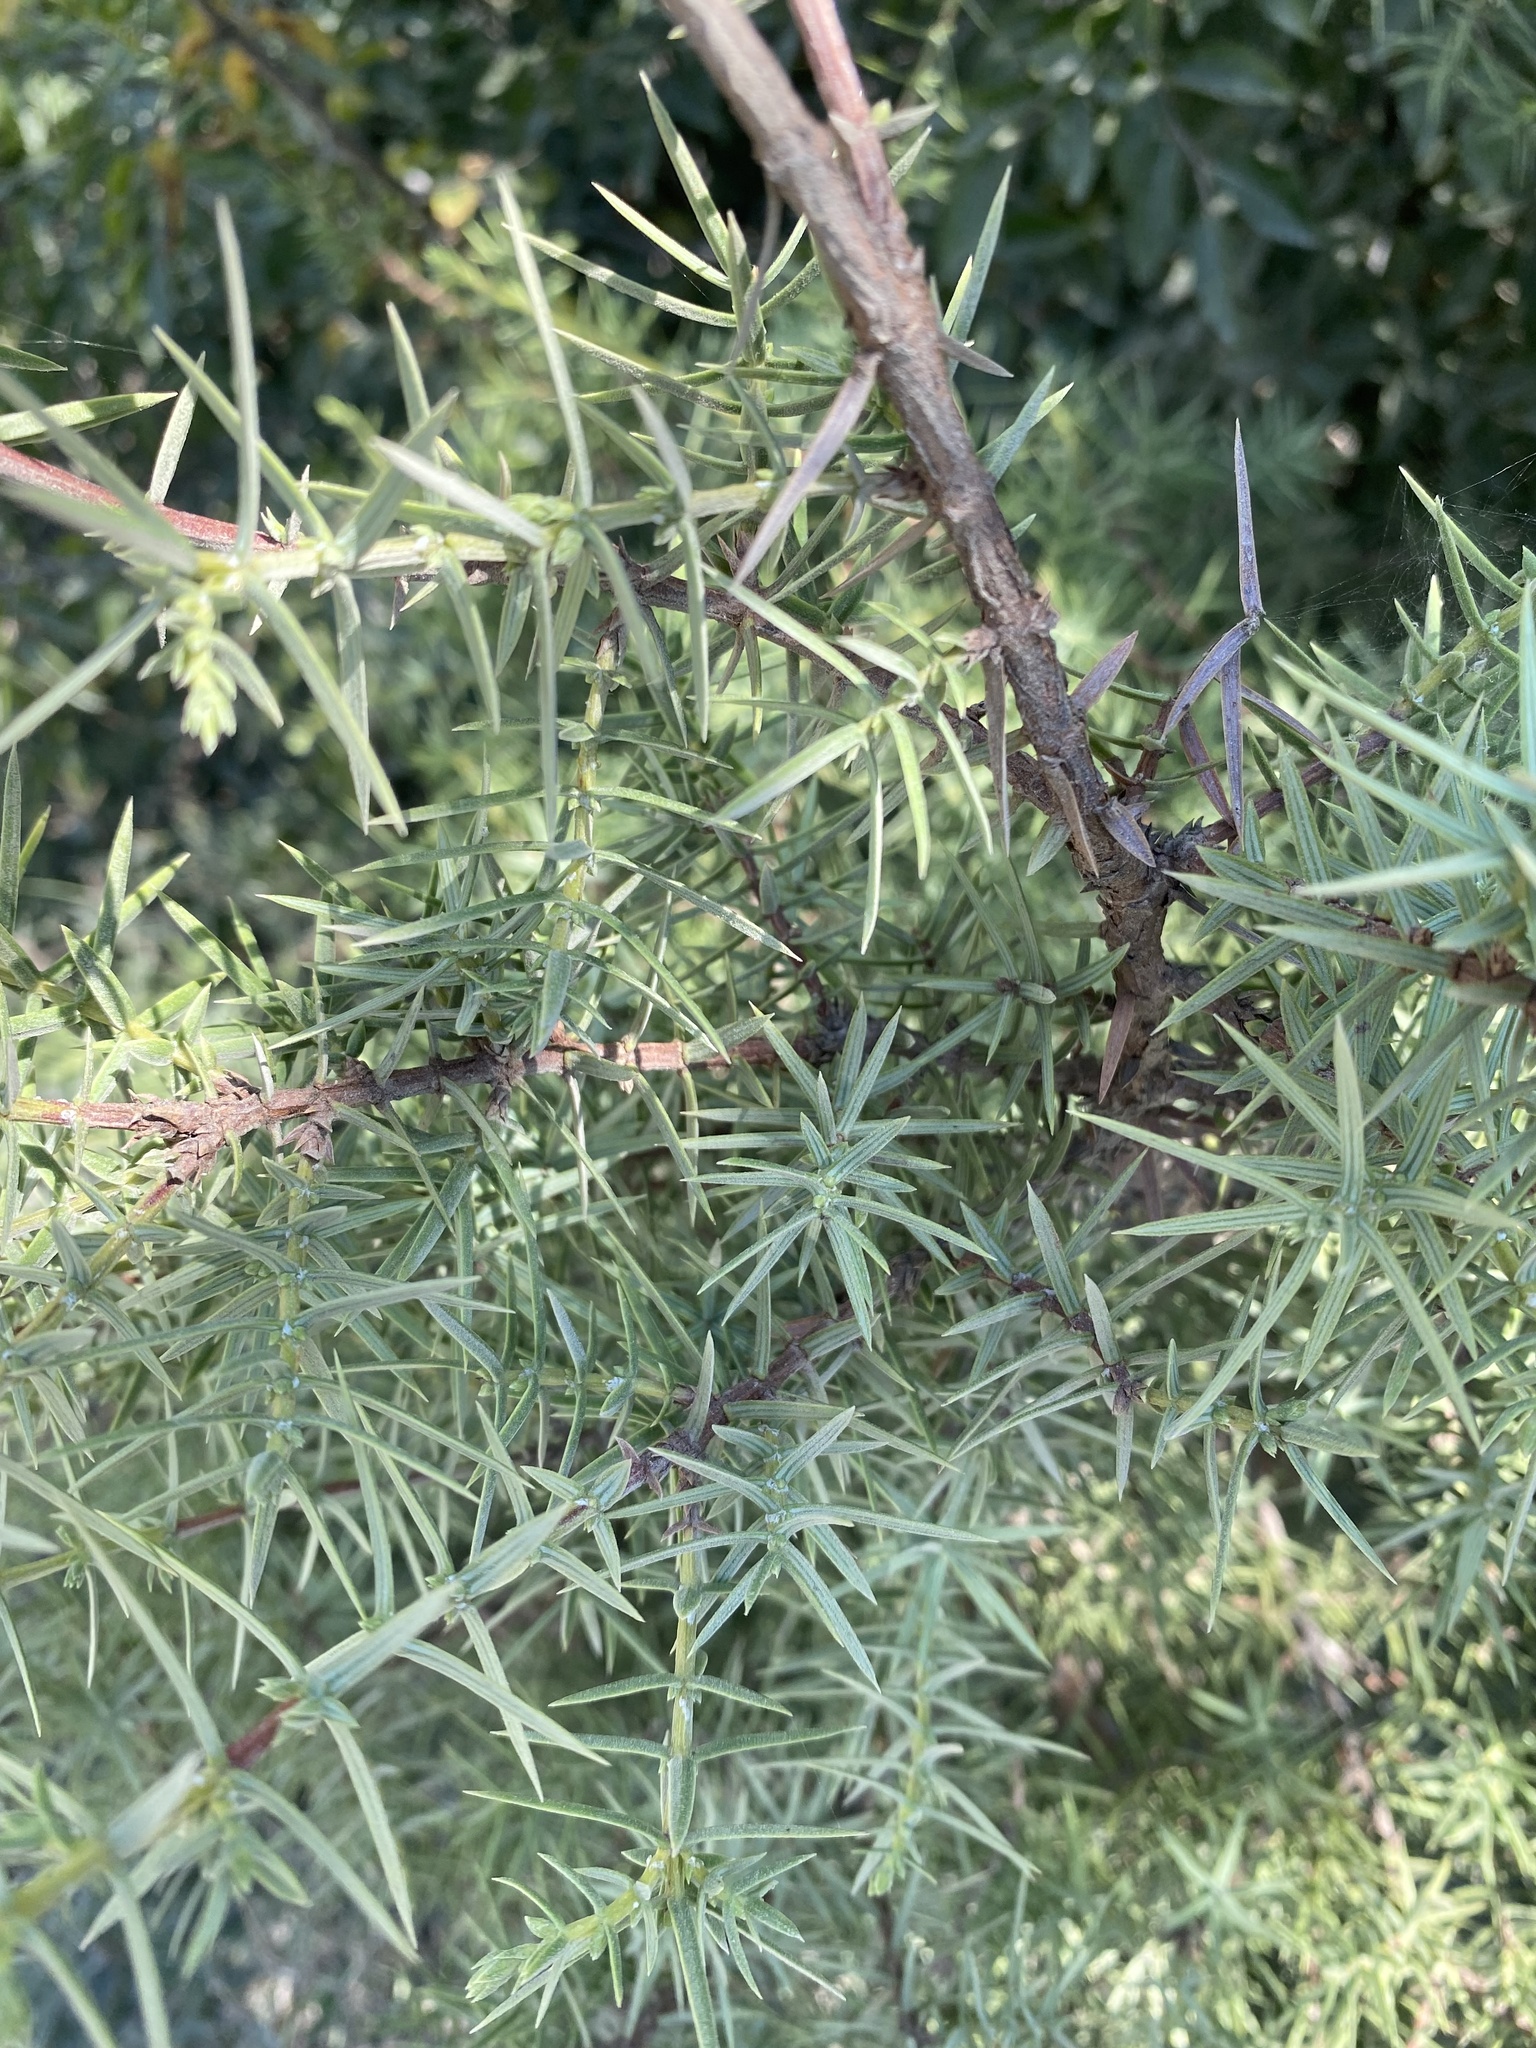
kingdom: Plantae
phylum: Tracheophyta
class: Pinopsida
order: Pinales
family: Cupressaceae
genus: Juniperus
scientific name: Juniperus oxycedrus
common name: Prickly juniper
